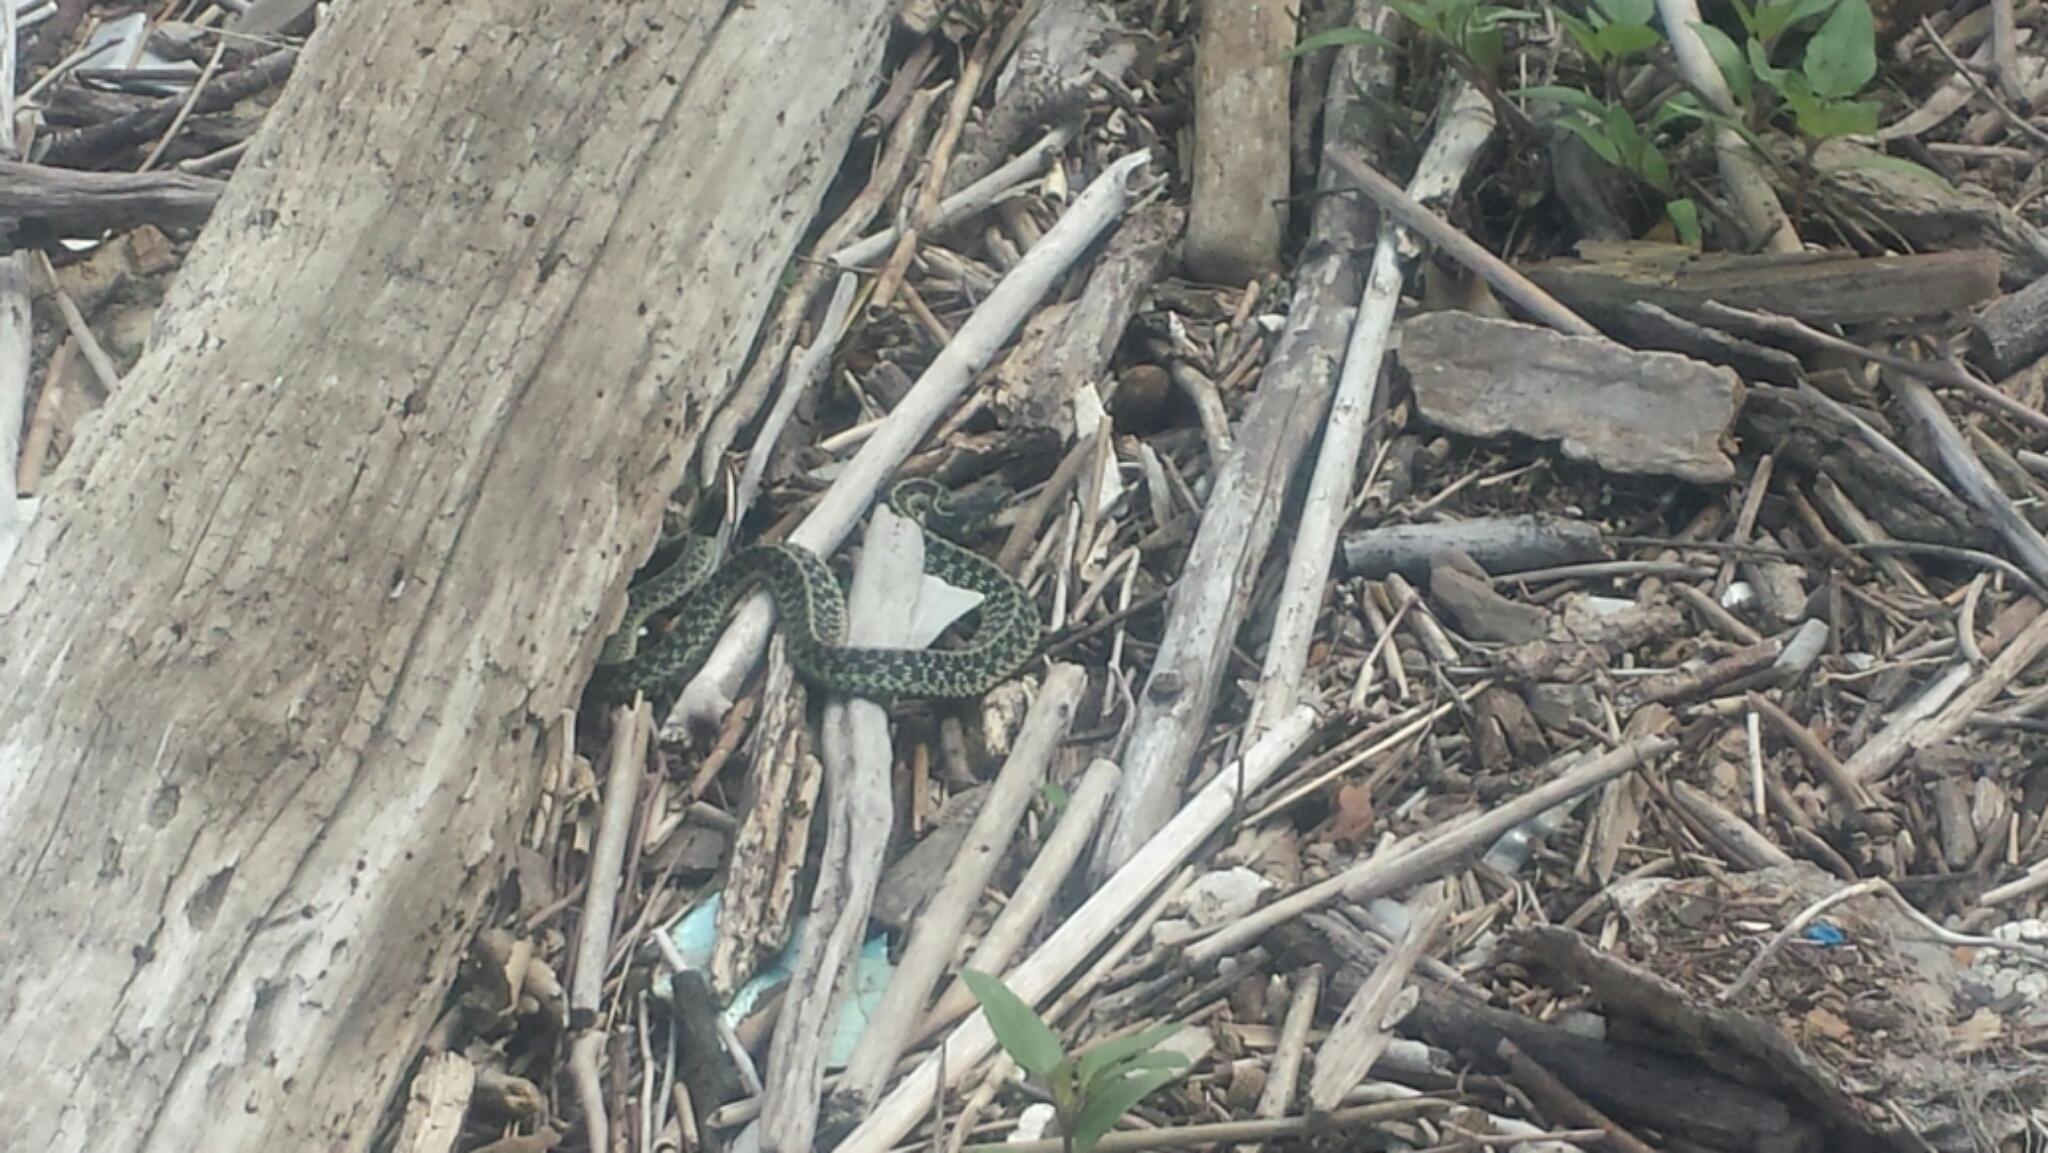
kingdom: Animalia
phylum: Chordata
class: Squamata
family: Colubridae
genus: Thamnophis
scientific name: Thamnophis sirtalis
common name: Common garter snake
